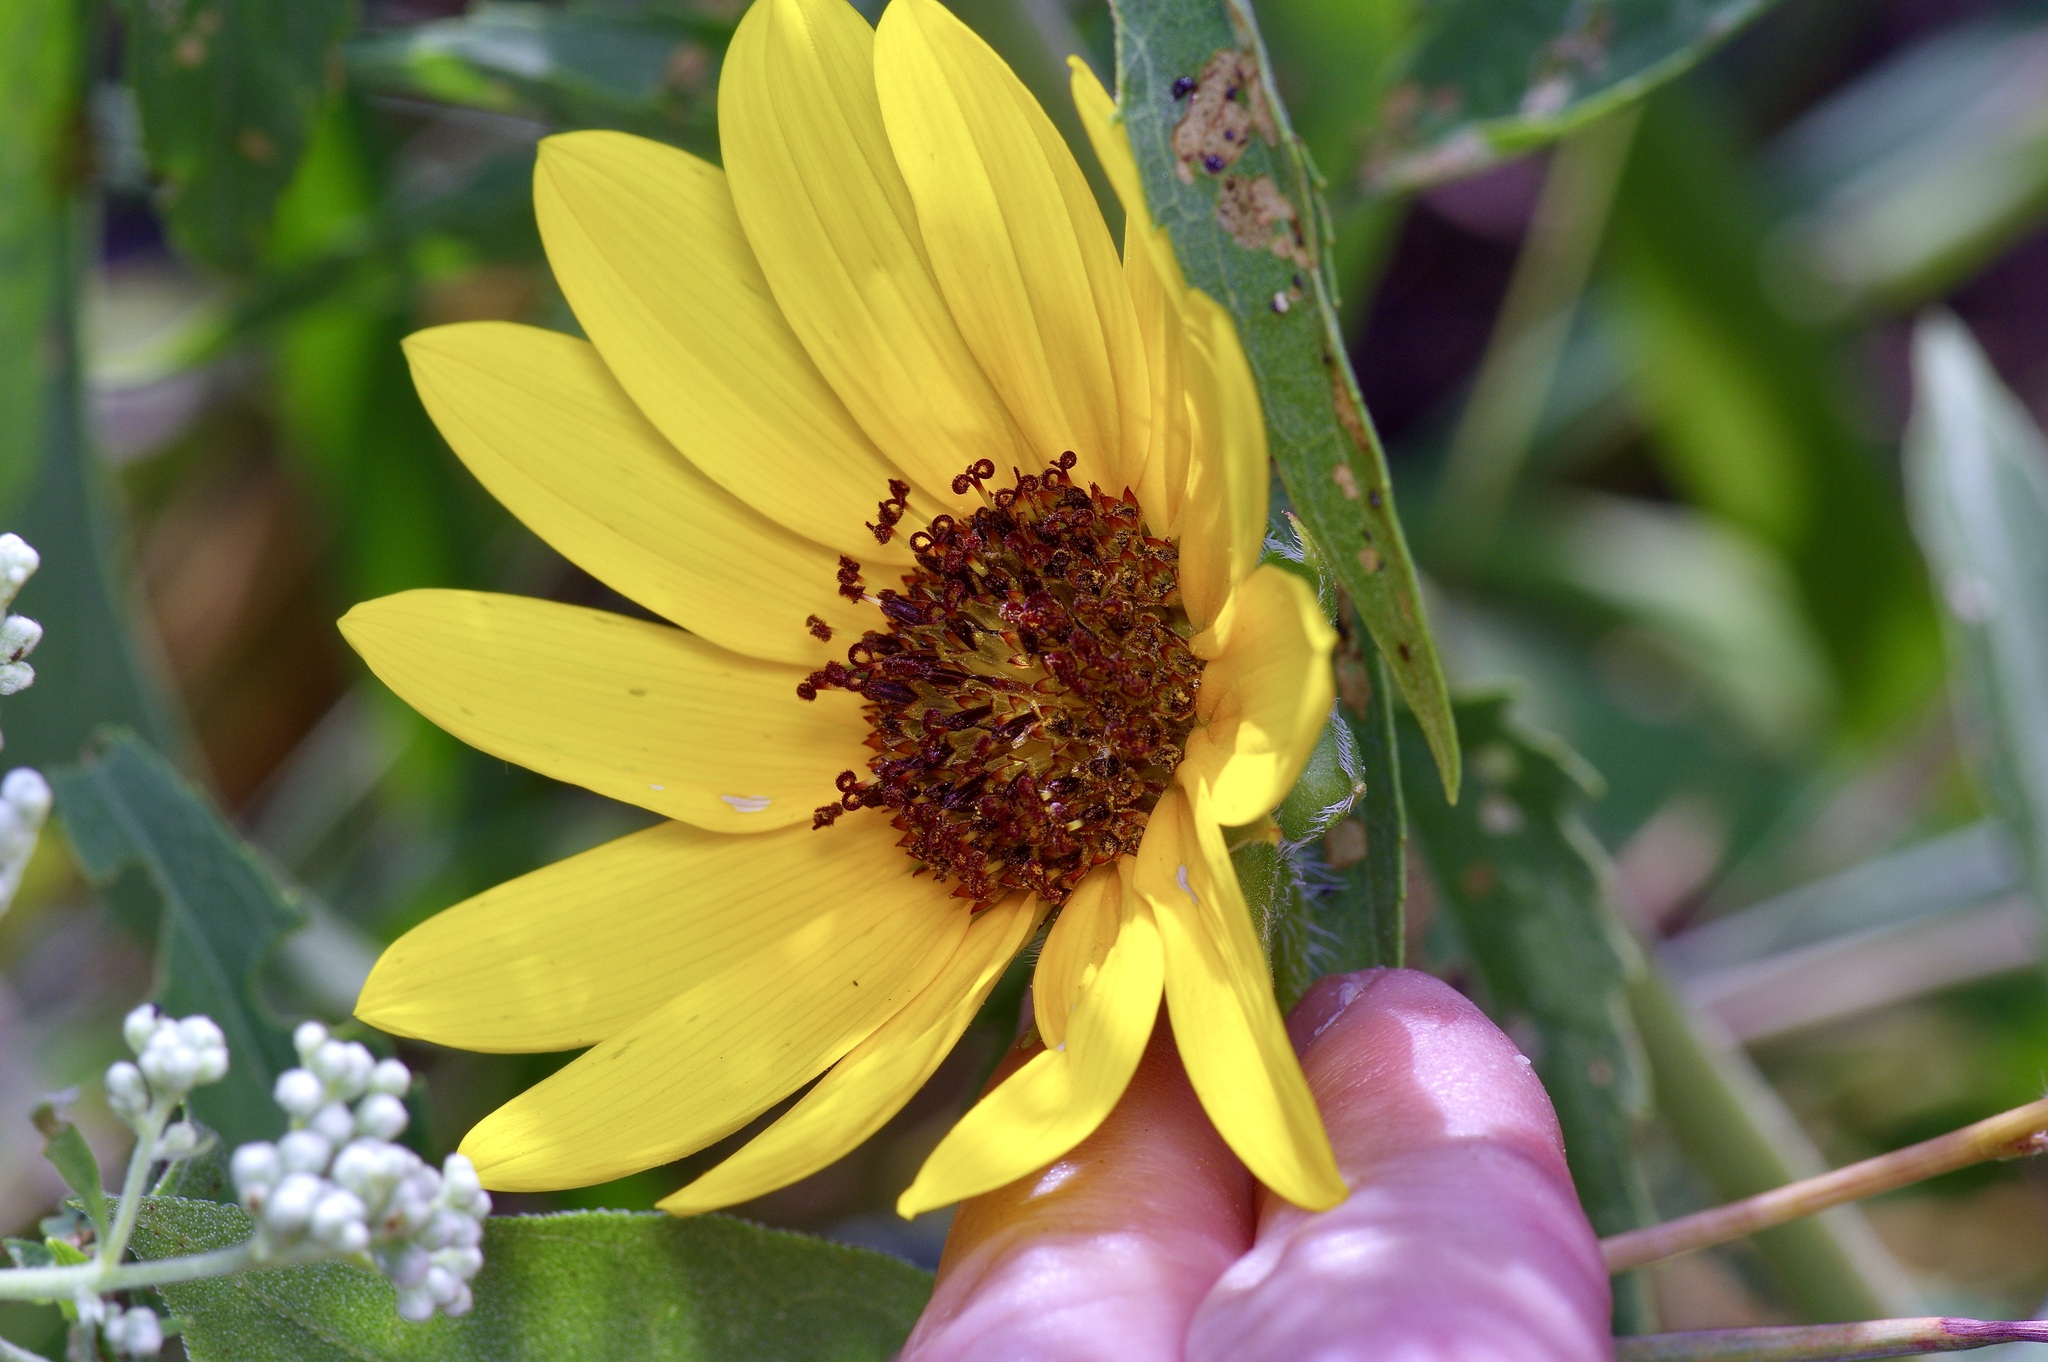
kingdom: Plantae
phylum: Tracheophyta
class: Magnoliopsida
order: Asterales
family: Asteraceae
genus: Helianthus
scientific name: Helianthus annuus
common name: Sunflower
